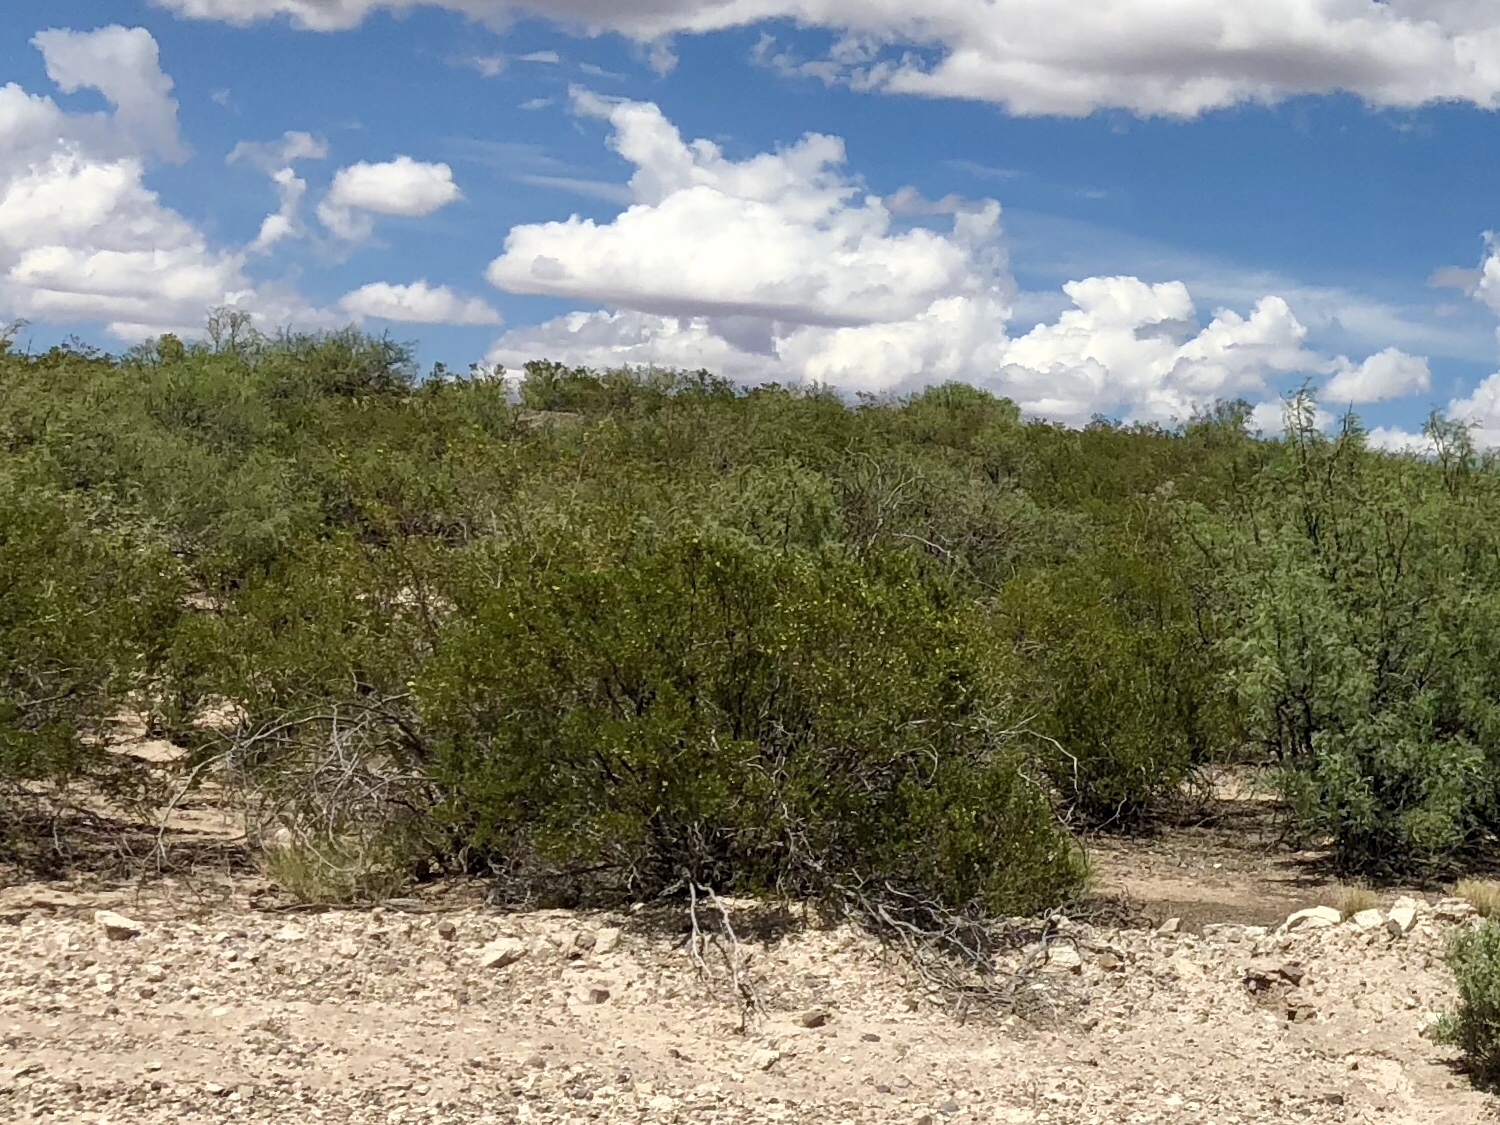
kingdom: Plantae
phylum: Tracheophyta
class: Magnoliopsida
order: Zygophyllales
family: Zygophyllaceae
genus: Larrea
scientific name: Larrea tridentata
